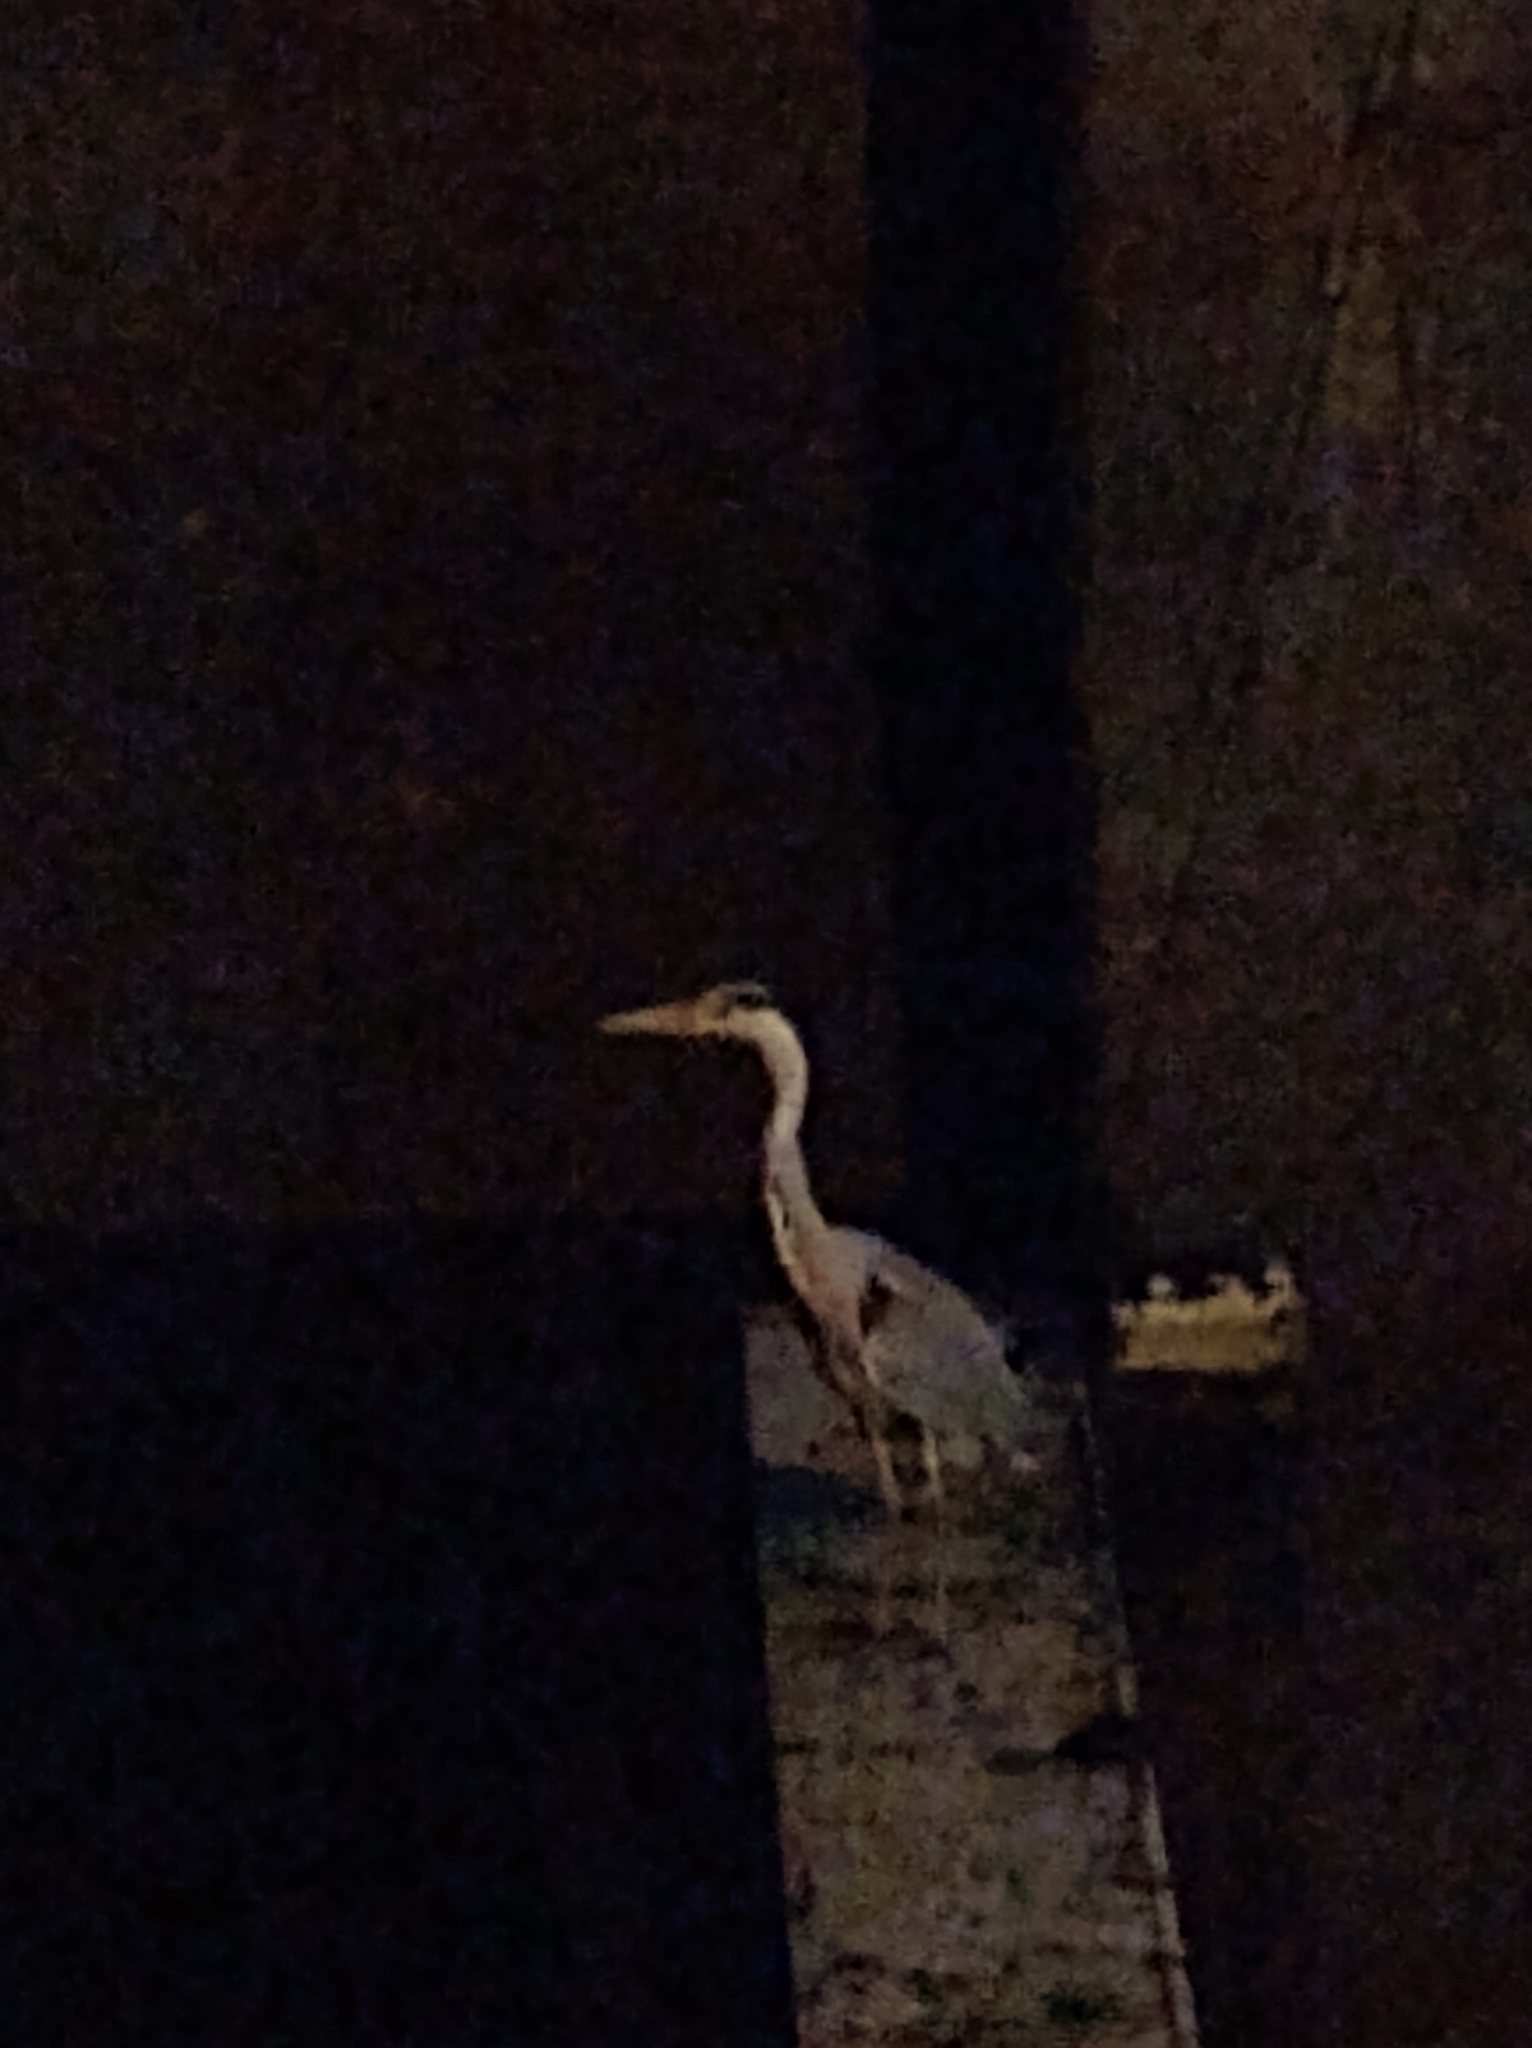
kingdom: Animalia
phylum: Chordata
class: Aves
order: Pelecaniformes
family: Ardeidae
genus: Ardea
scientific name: Ardea cinerea
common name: Grey heron
